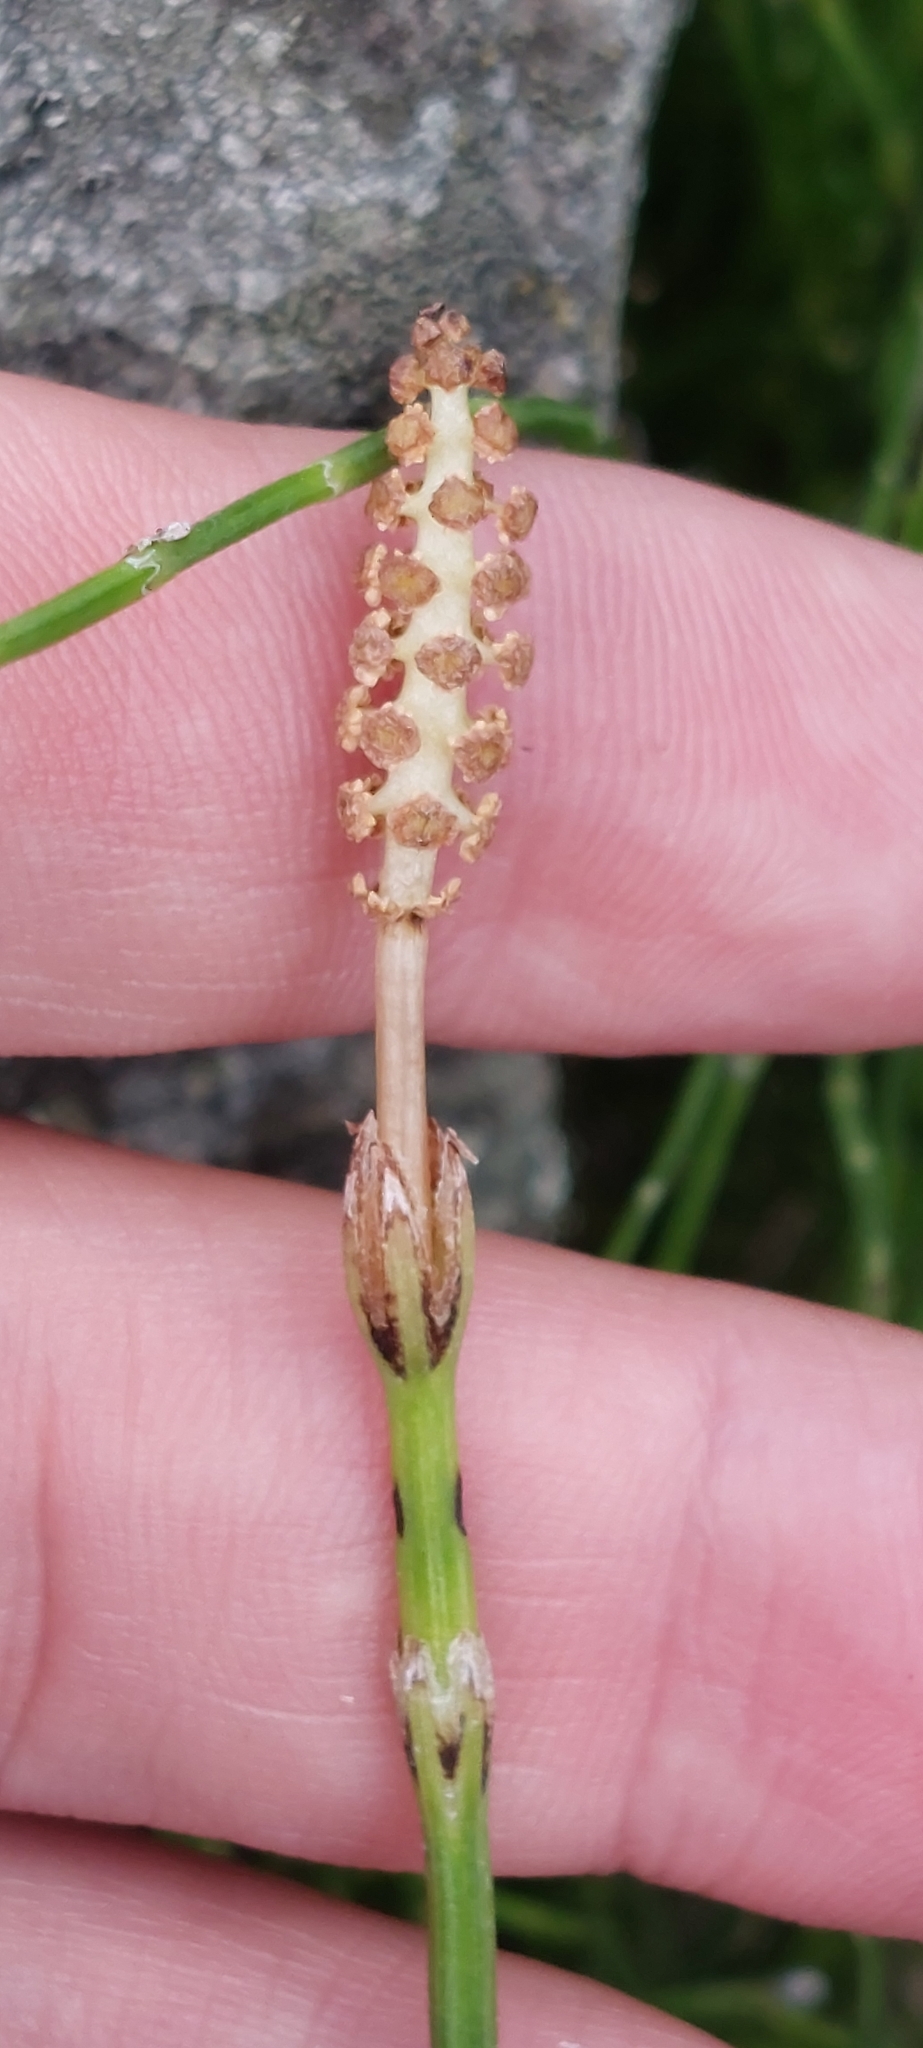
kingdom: Plantae
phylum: Tracheophyta
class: Polypodiopsida
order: Equisetales
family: Equisetaceae
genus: Equisetum
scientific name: Equisetum bogotense
